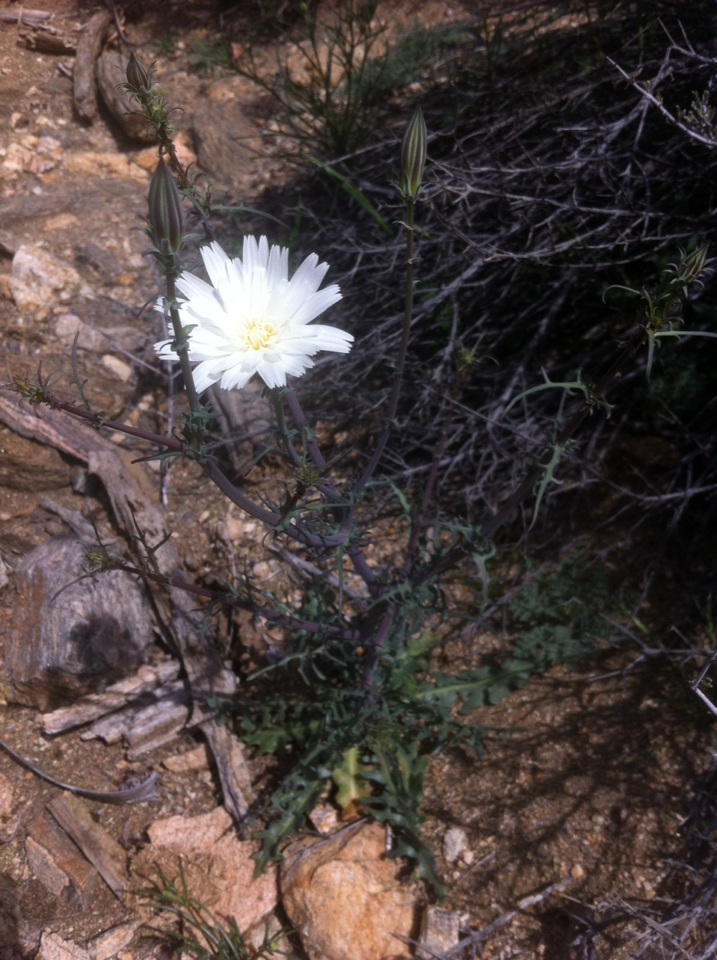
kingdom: Plantae
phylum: Tracheophyta
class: Magnoliopsida
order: Asterales
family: Asteraceae
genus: Rafinesquia
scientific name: Rafinesquia neomexicana
